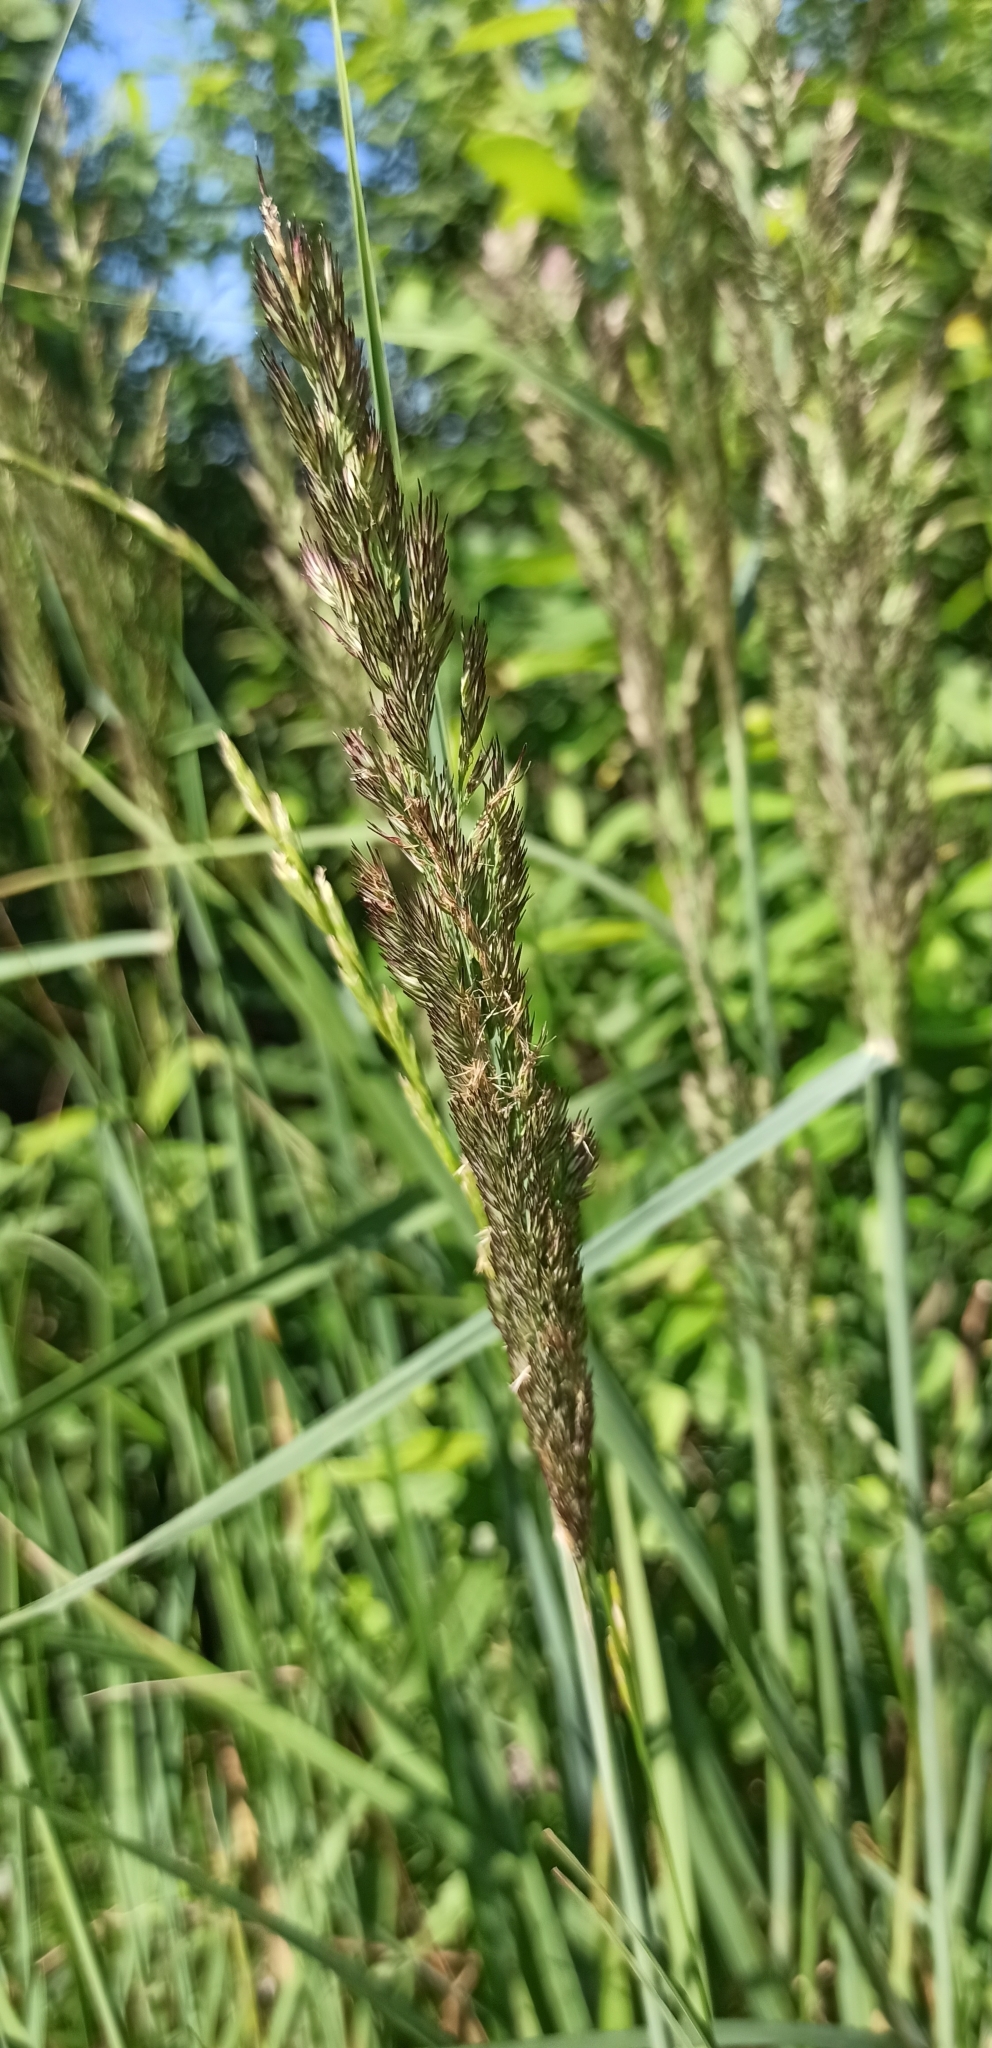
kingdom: Plantae
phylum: Tracheophyta
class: Liliopsida
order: Poales
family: Poaceae
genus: Calamagrostis
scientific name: Calamagrostis epigejos
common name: Wood small-reed
